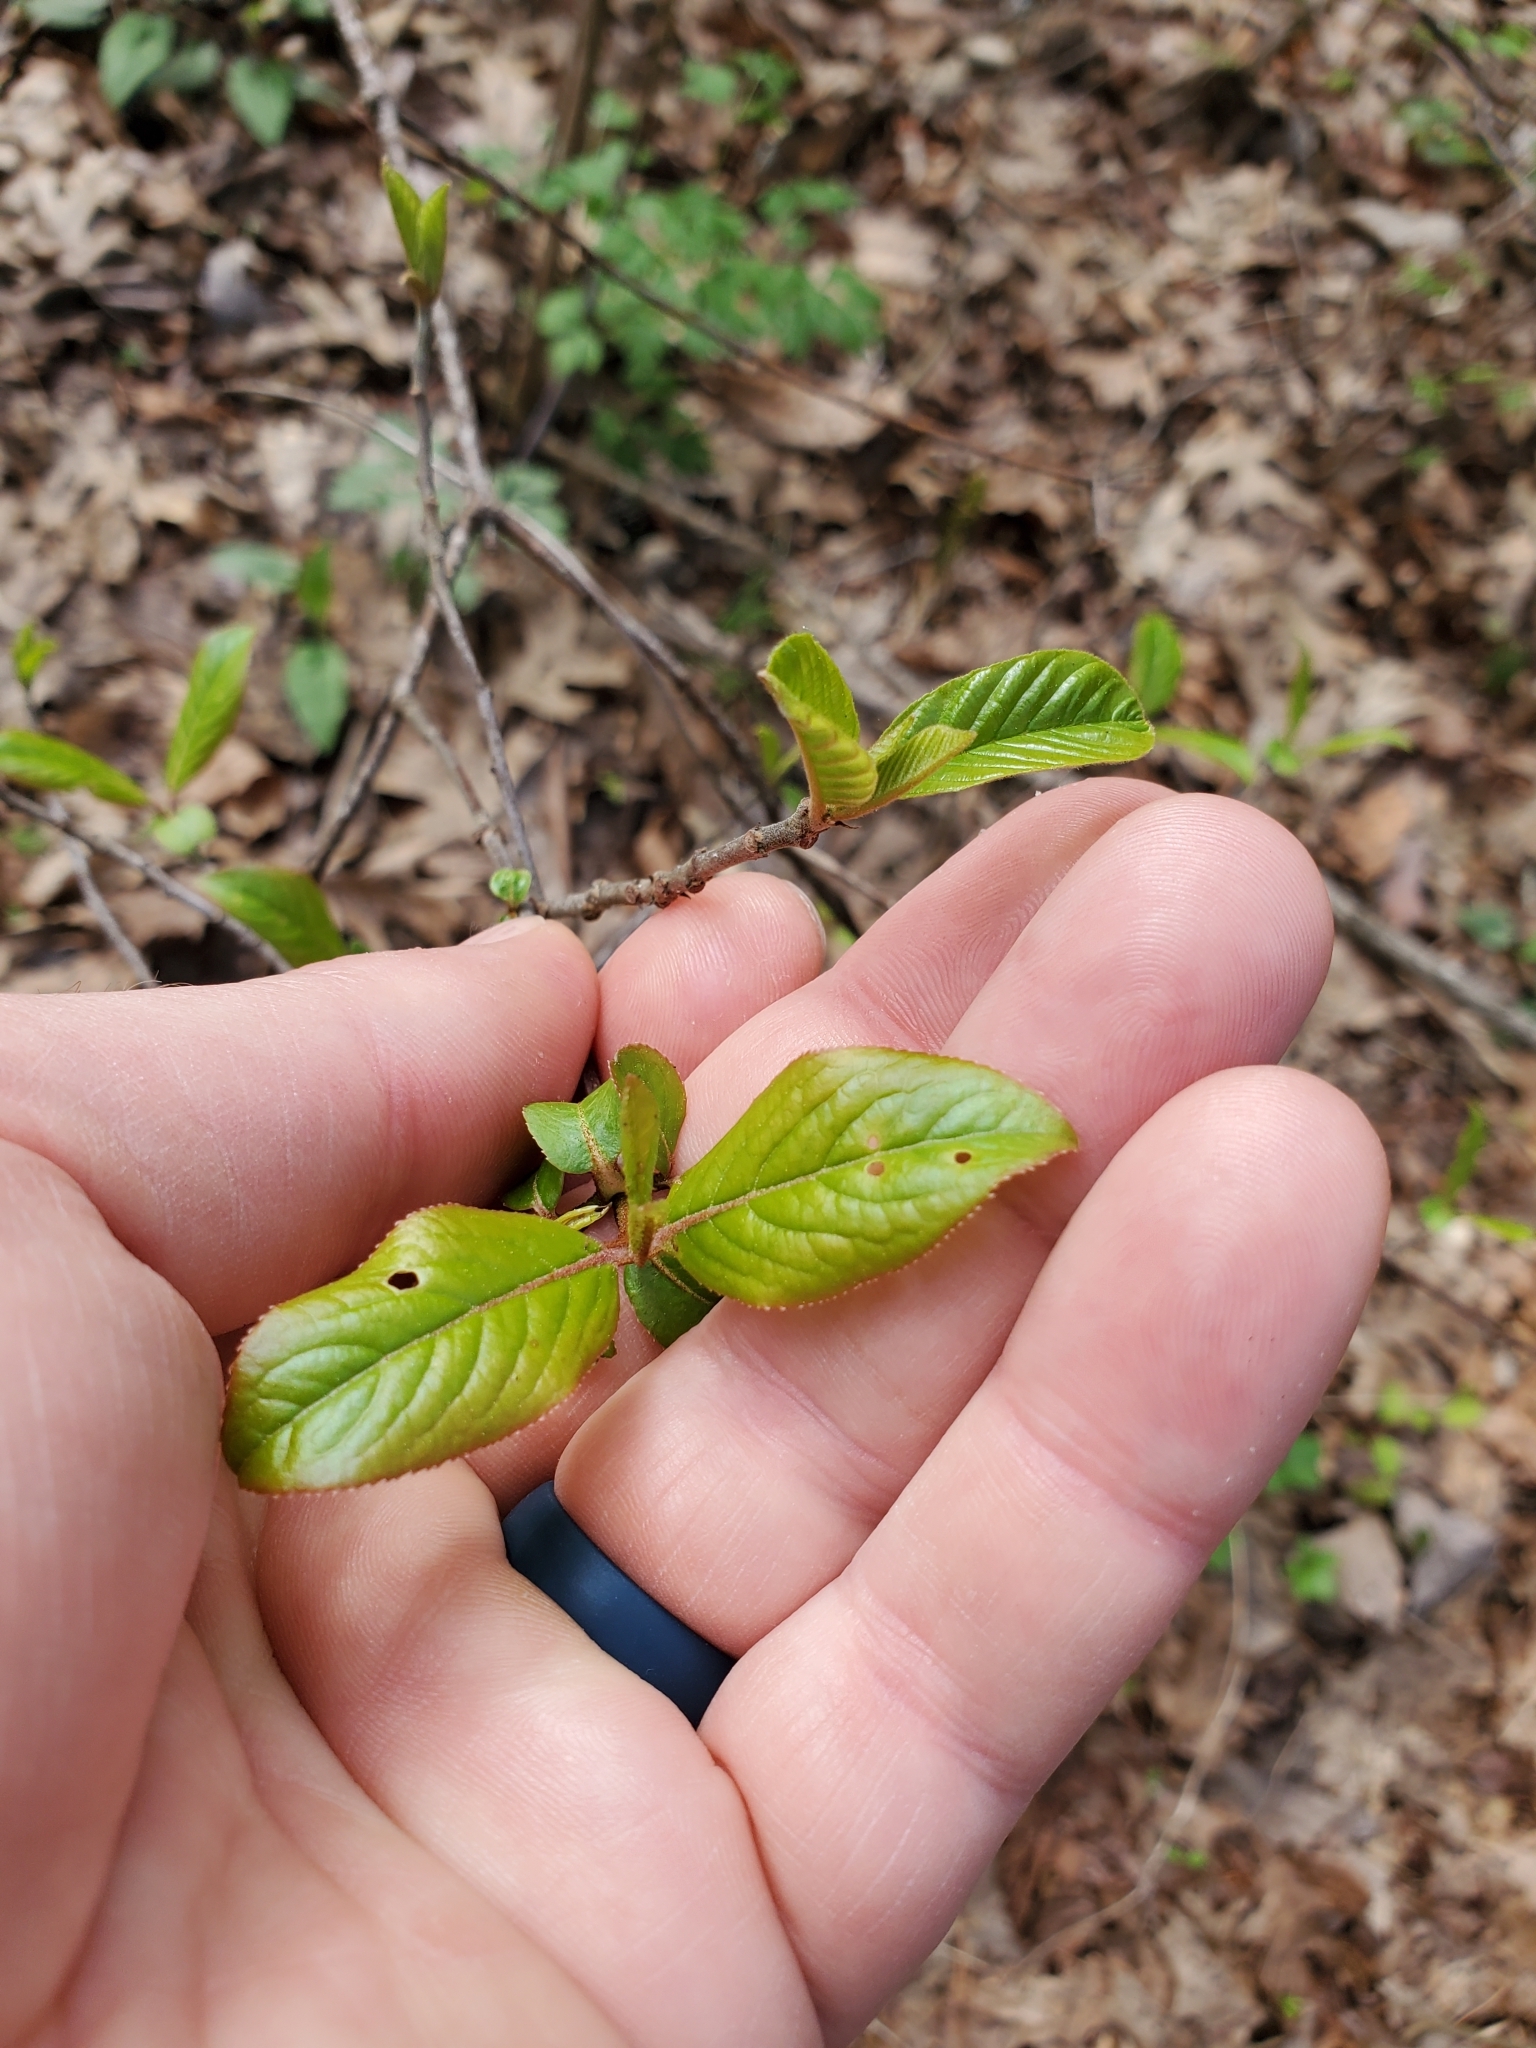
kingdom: Plantae
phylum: Tracheophyta
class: Magnoliopsida
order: Dipsacales
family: Viburnaceae
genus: Viburnum
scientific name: Viburnum rufidulum
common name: Blue haw
